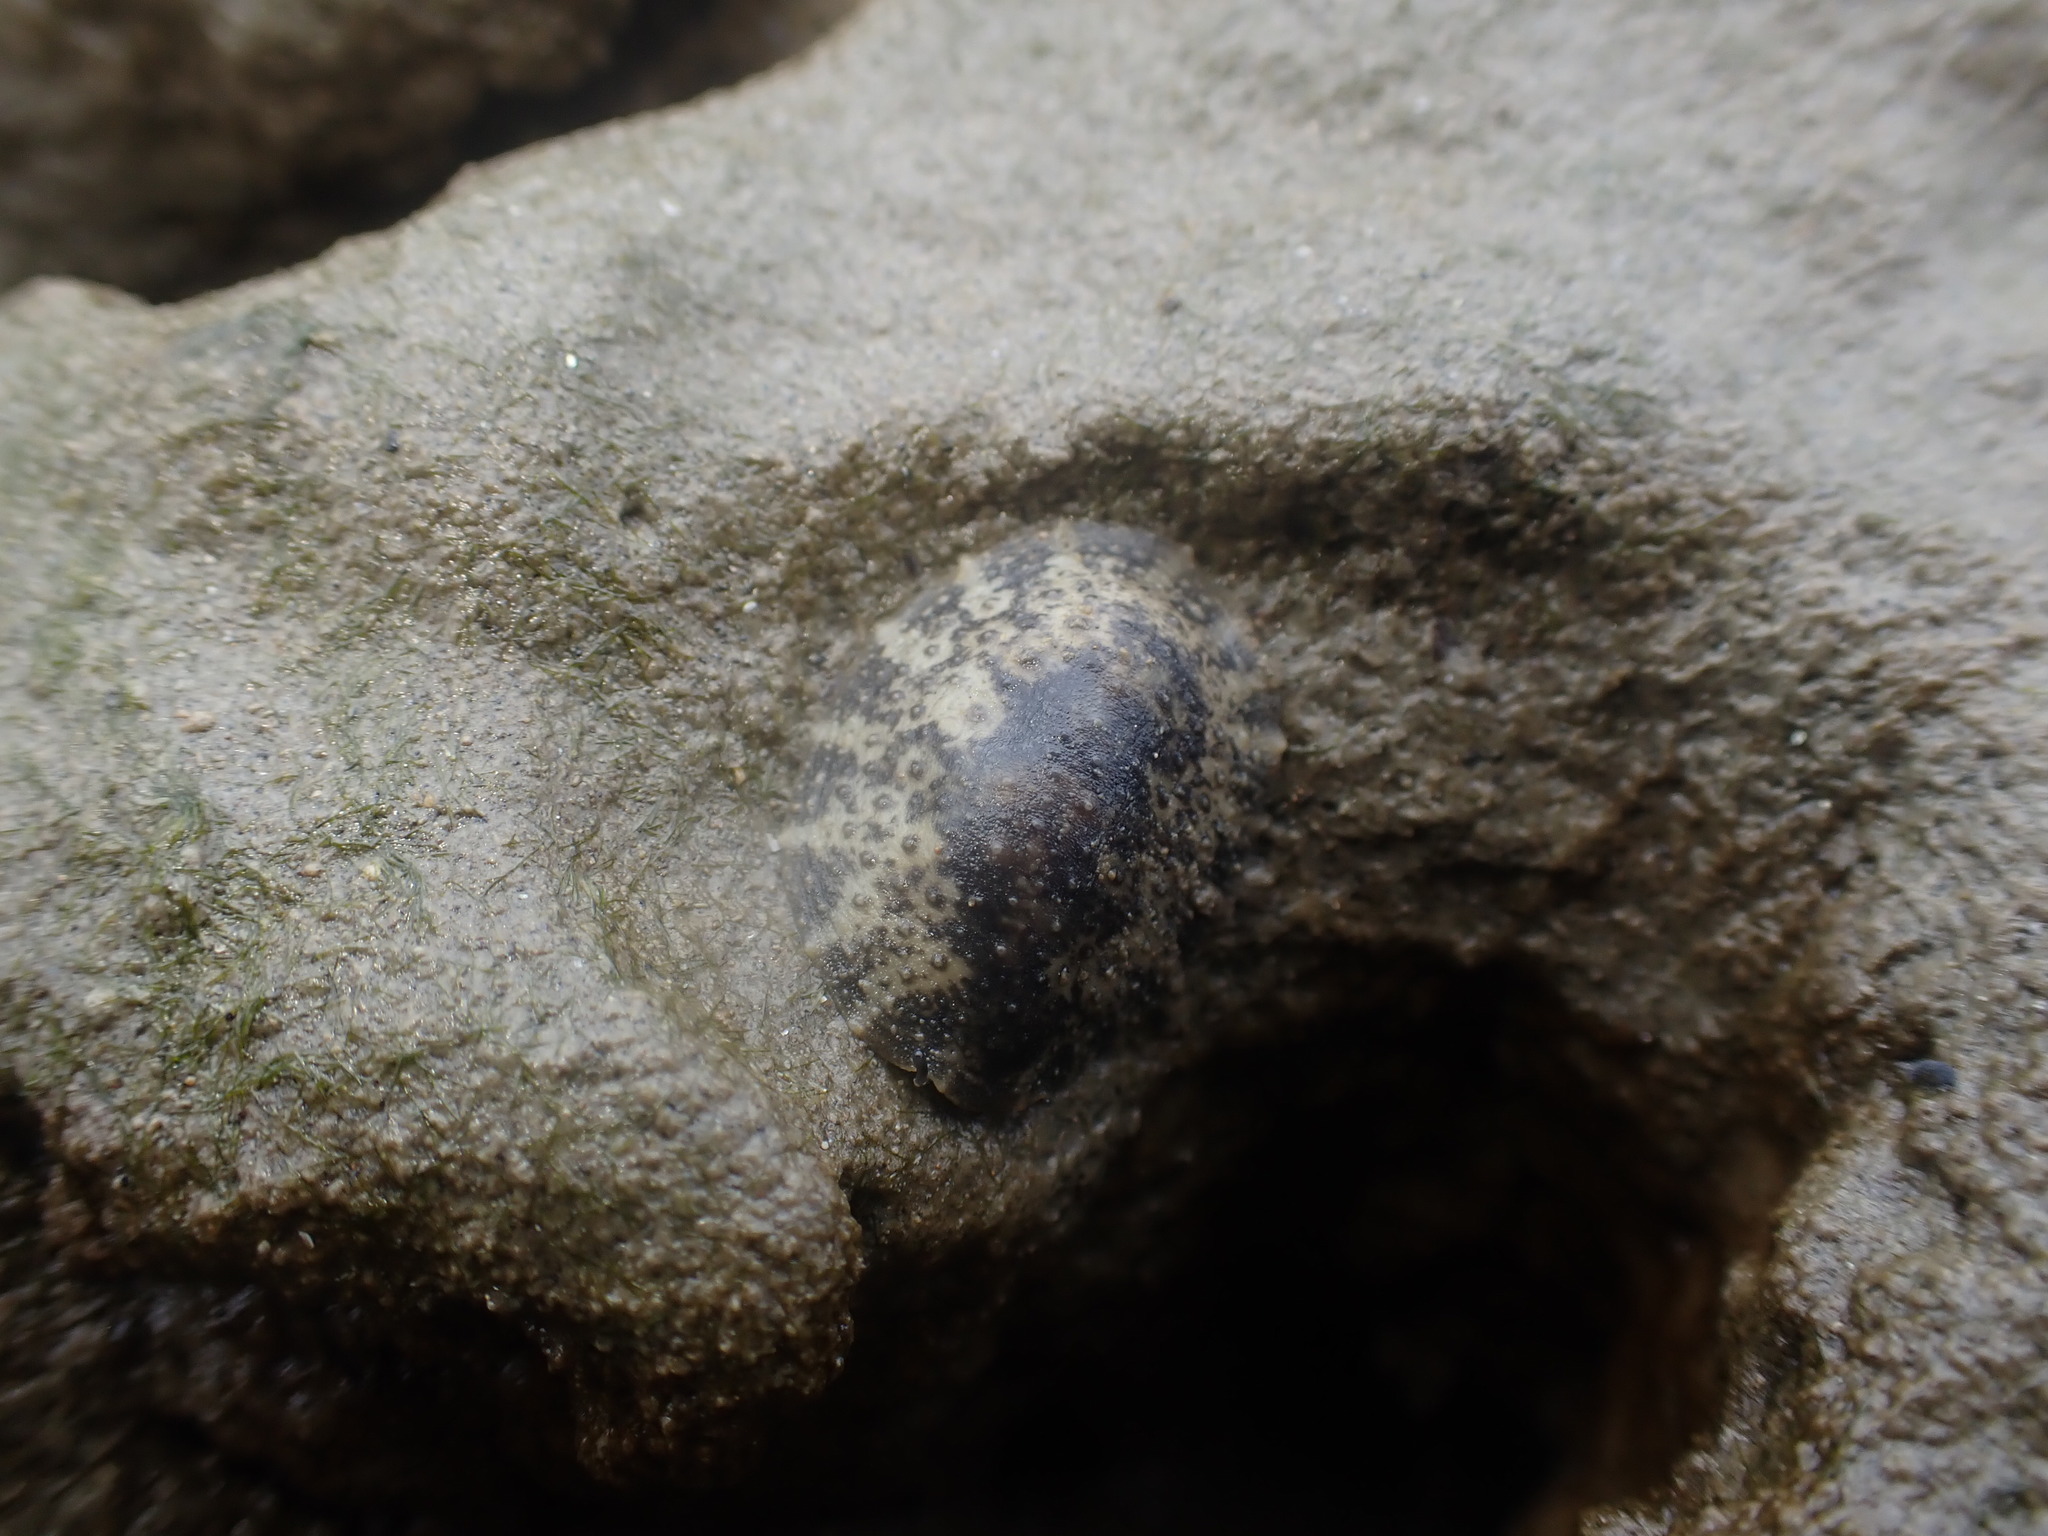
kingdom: Animalia
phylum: Mollusca
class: Gastropoda
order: Systellommatophora
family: Onchidiidae
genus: Onchidella
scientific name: Onchidella nigricans
